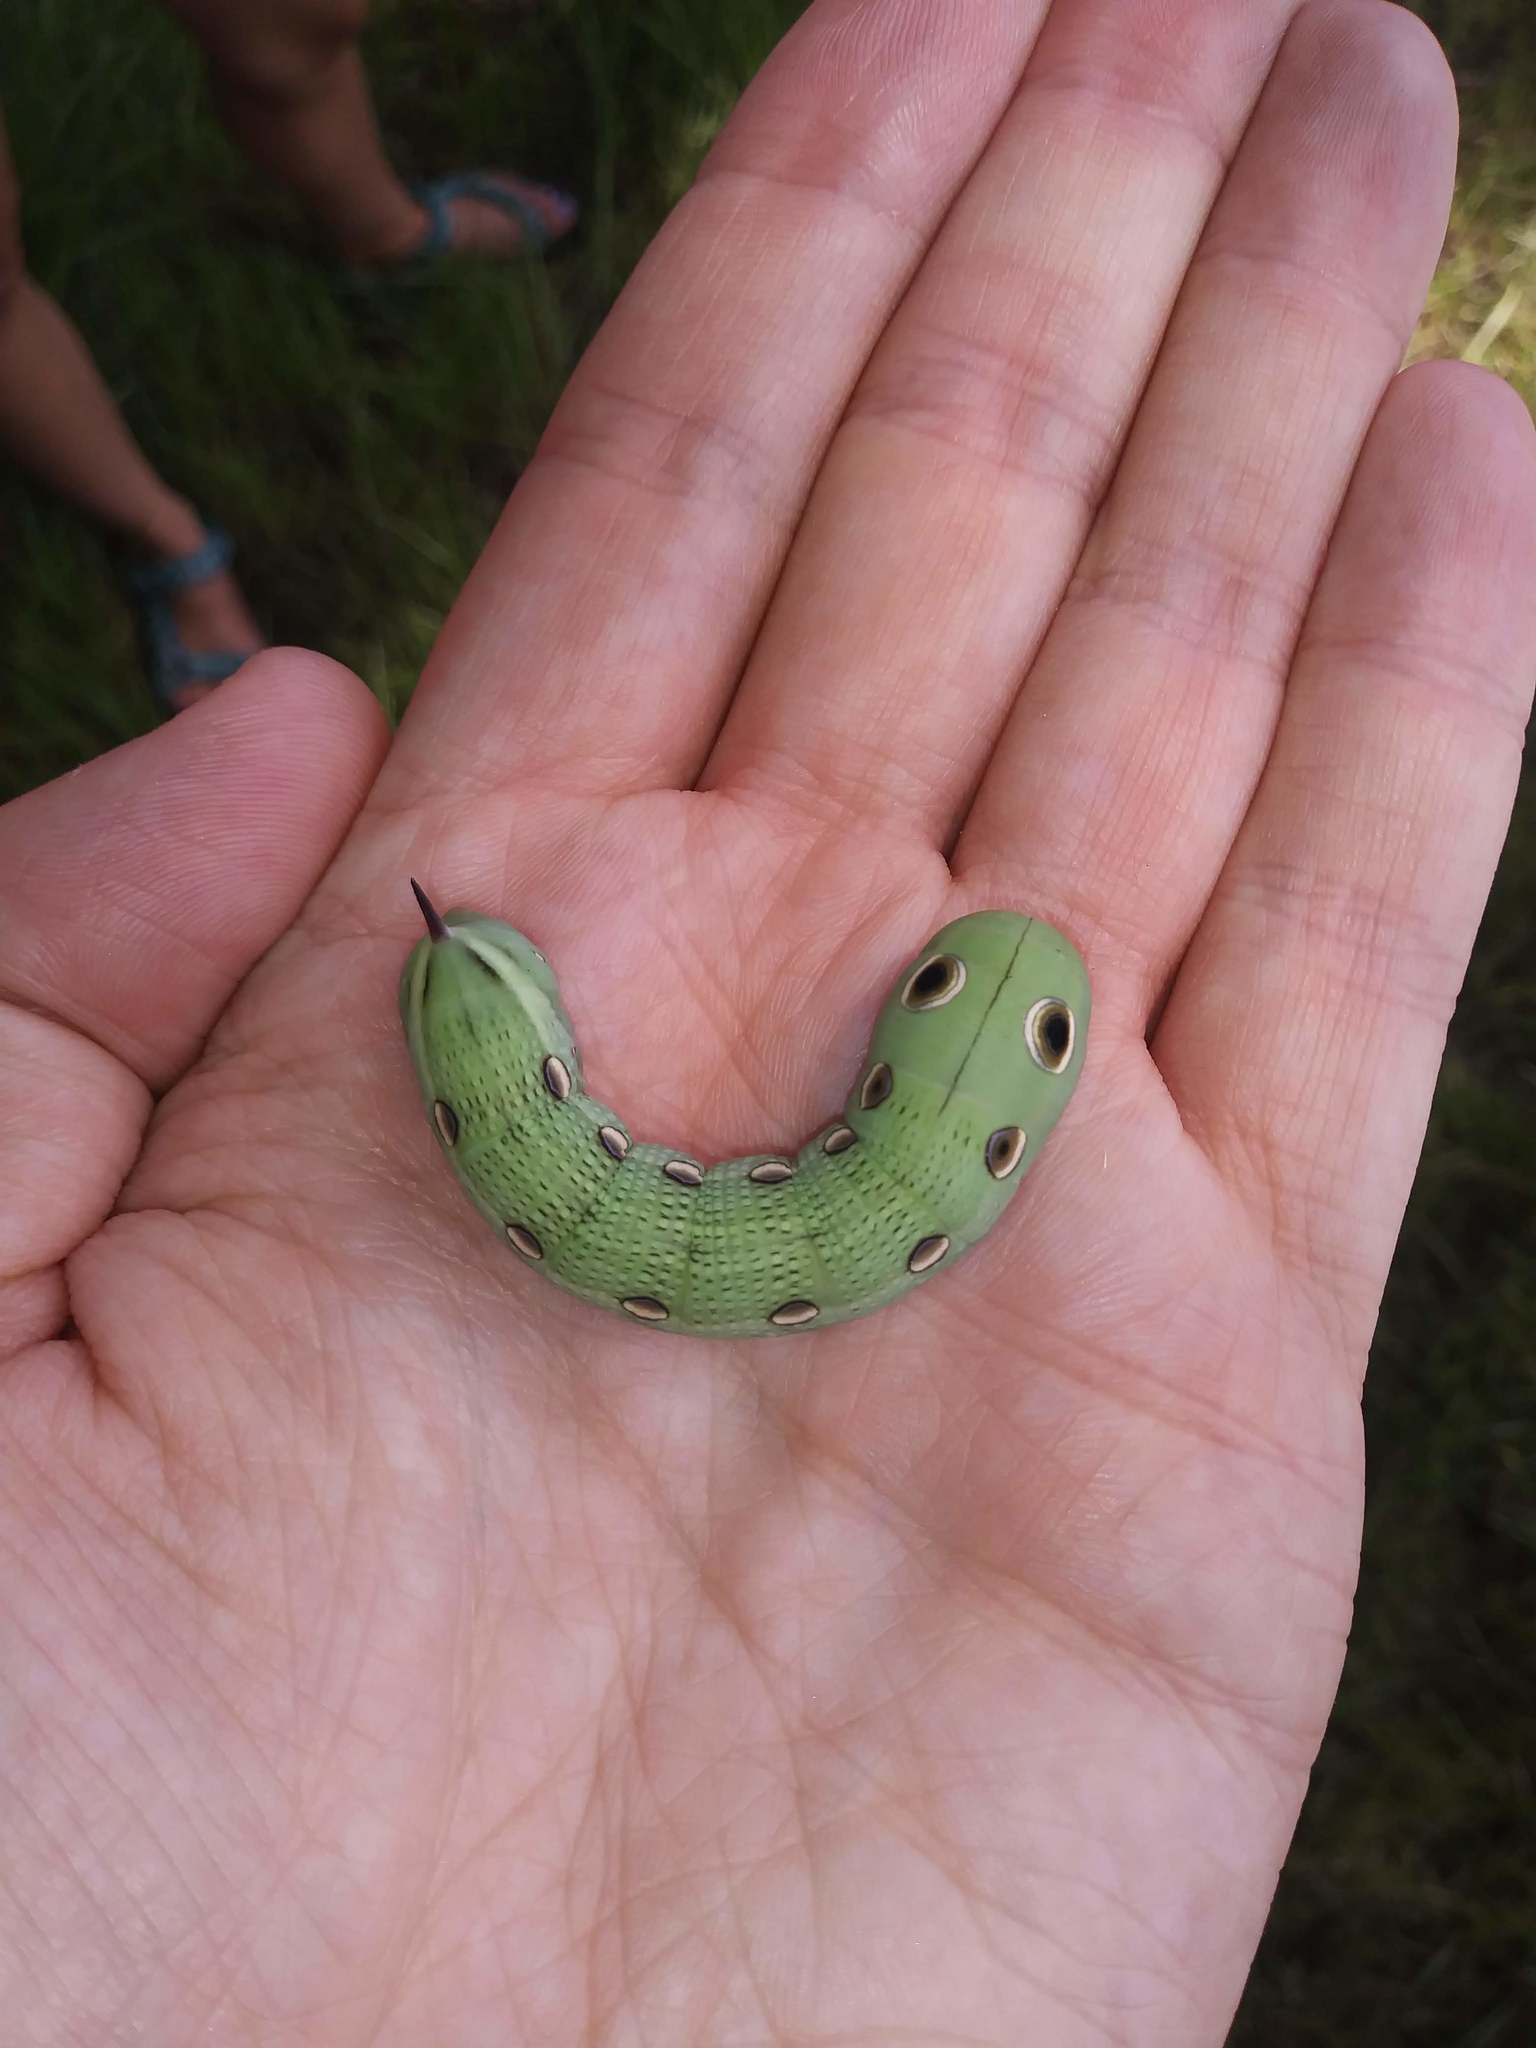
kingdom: Animalia
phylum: Arthropoda
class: Insecta
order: Lepidoptera
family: Sphingidae
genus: Xylophanes
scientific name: Xylophanes tersa
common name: Tersa sphinx
